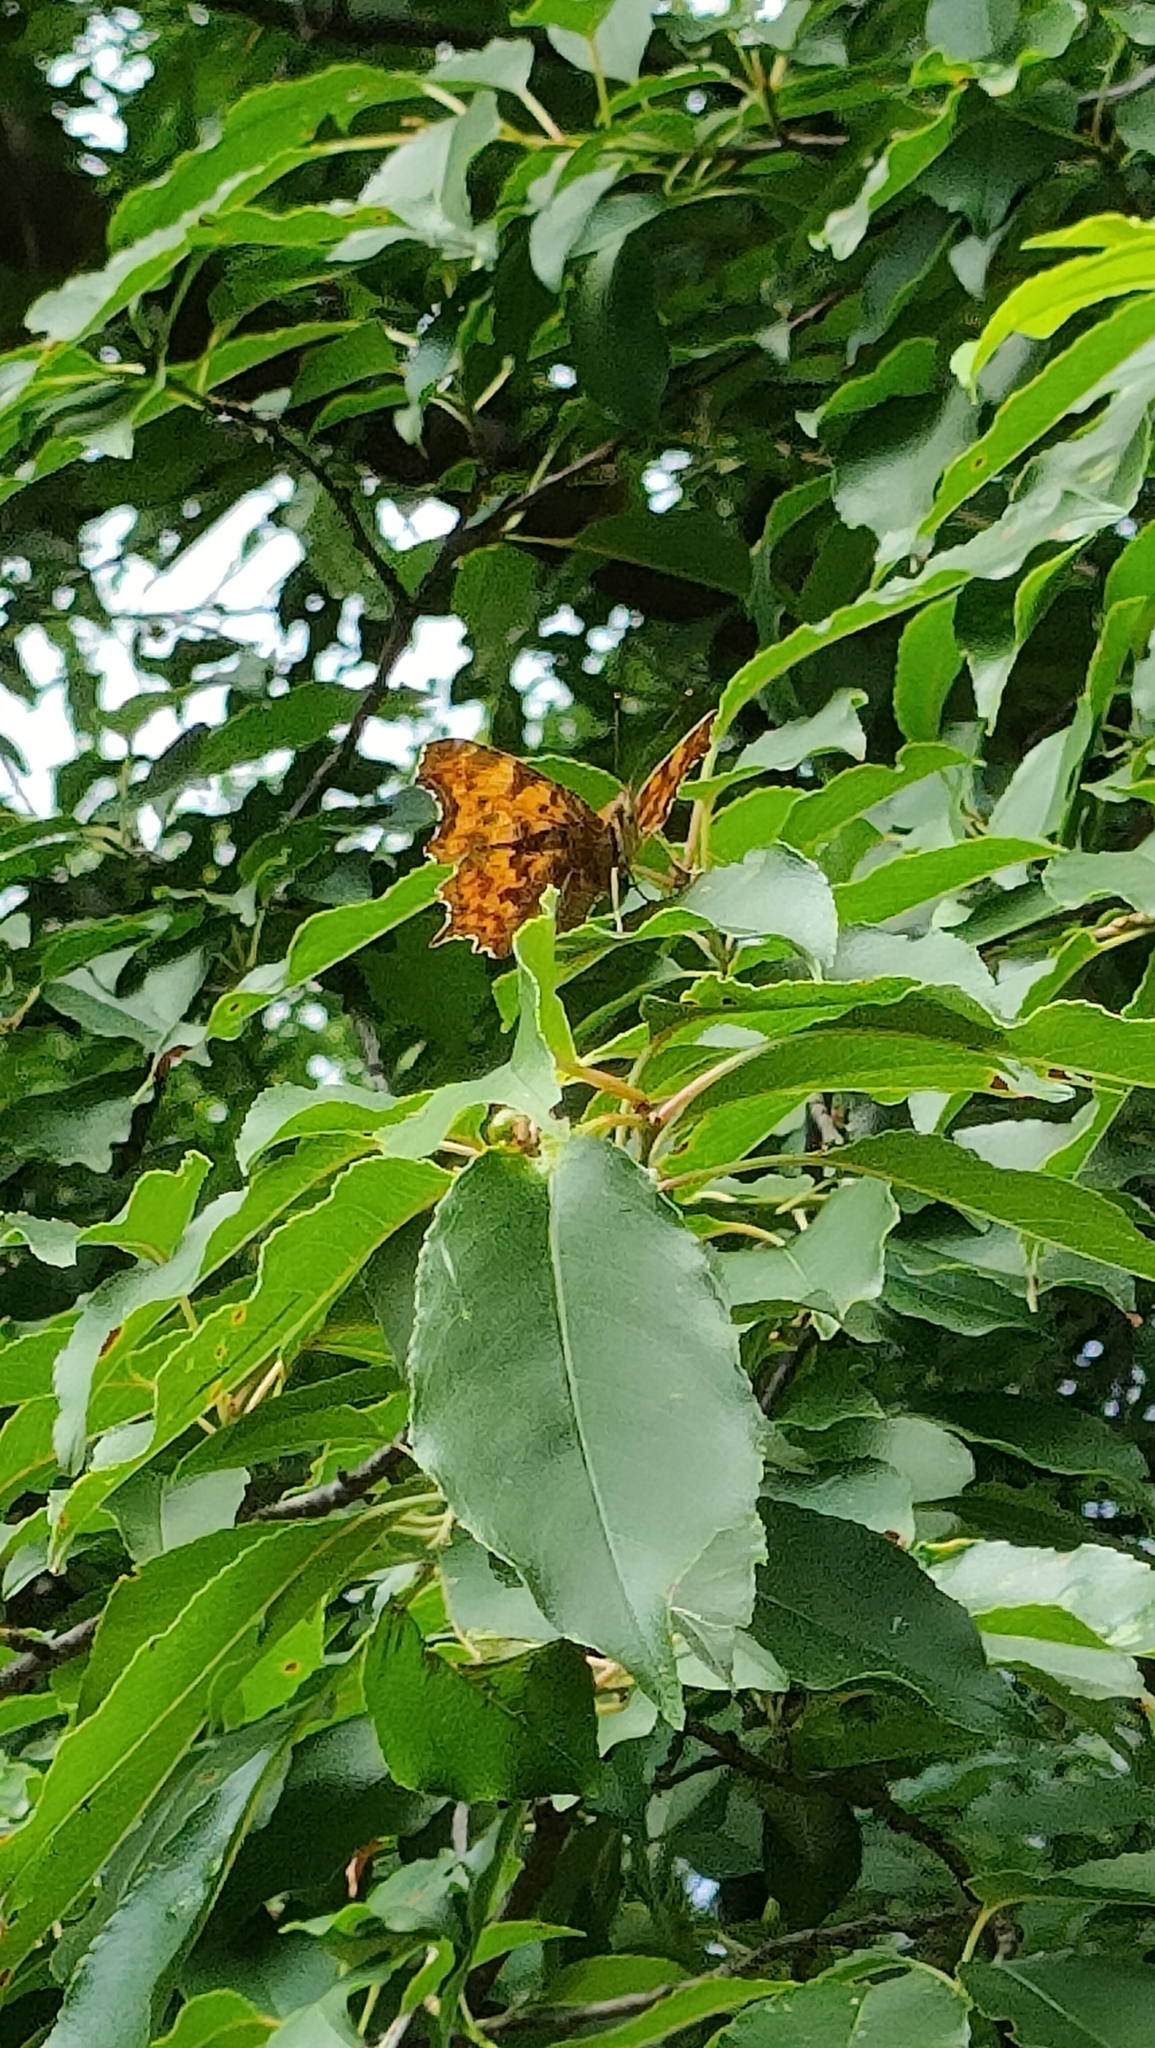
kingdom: Animalia
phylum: Arthropoda
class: Insecta
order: Lepidoptera
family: Nymphalidae
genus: Polygonia
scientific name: Polygonia c-album
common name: Comma
